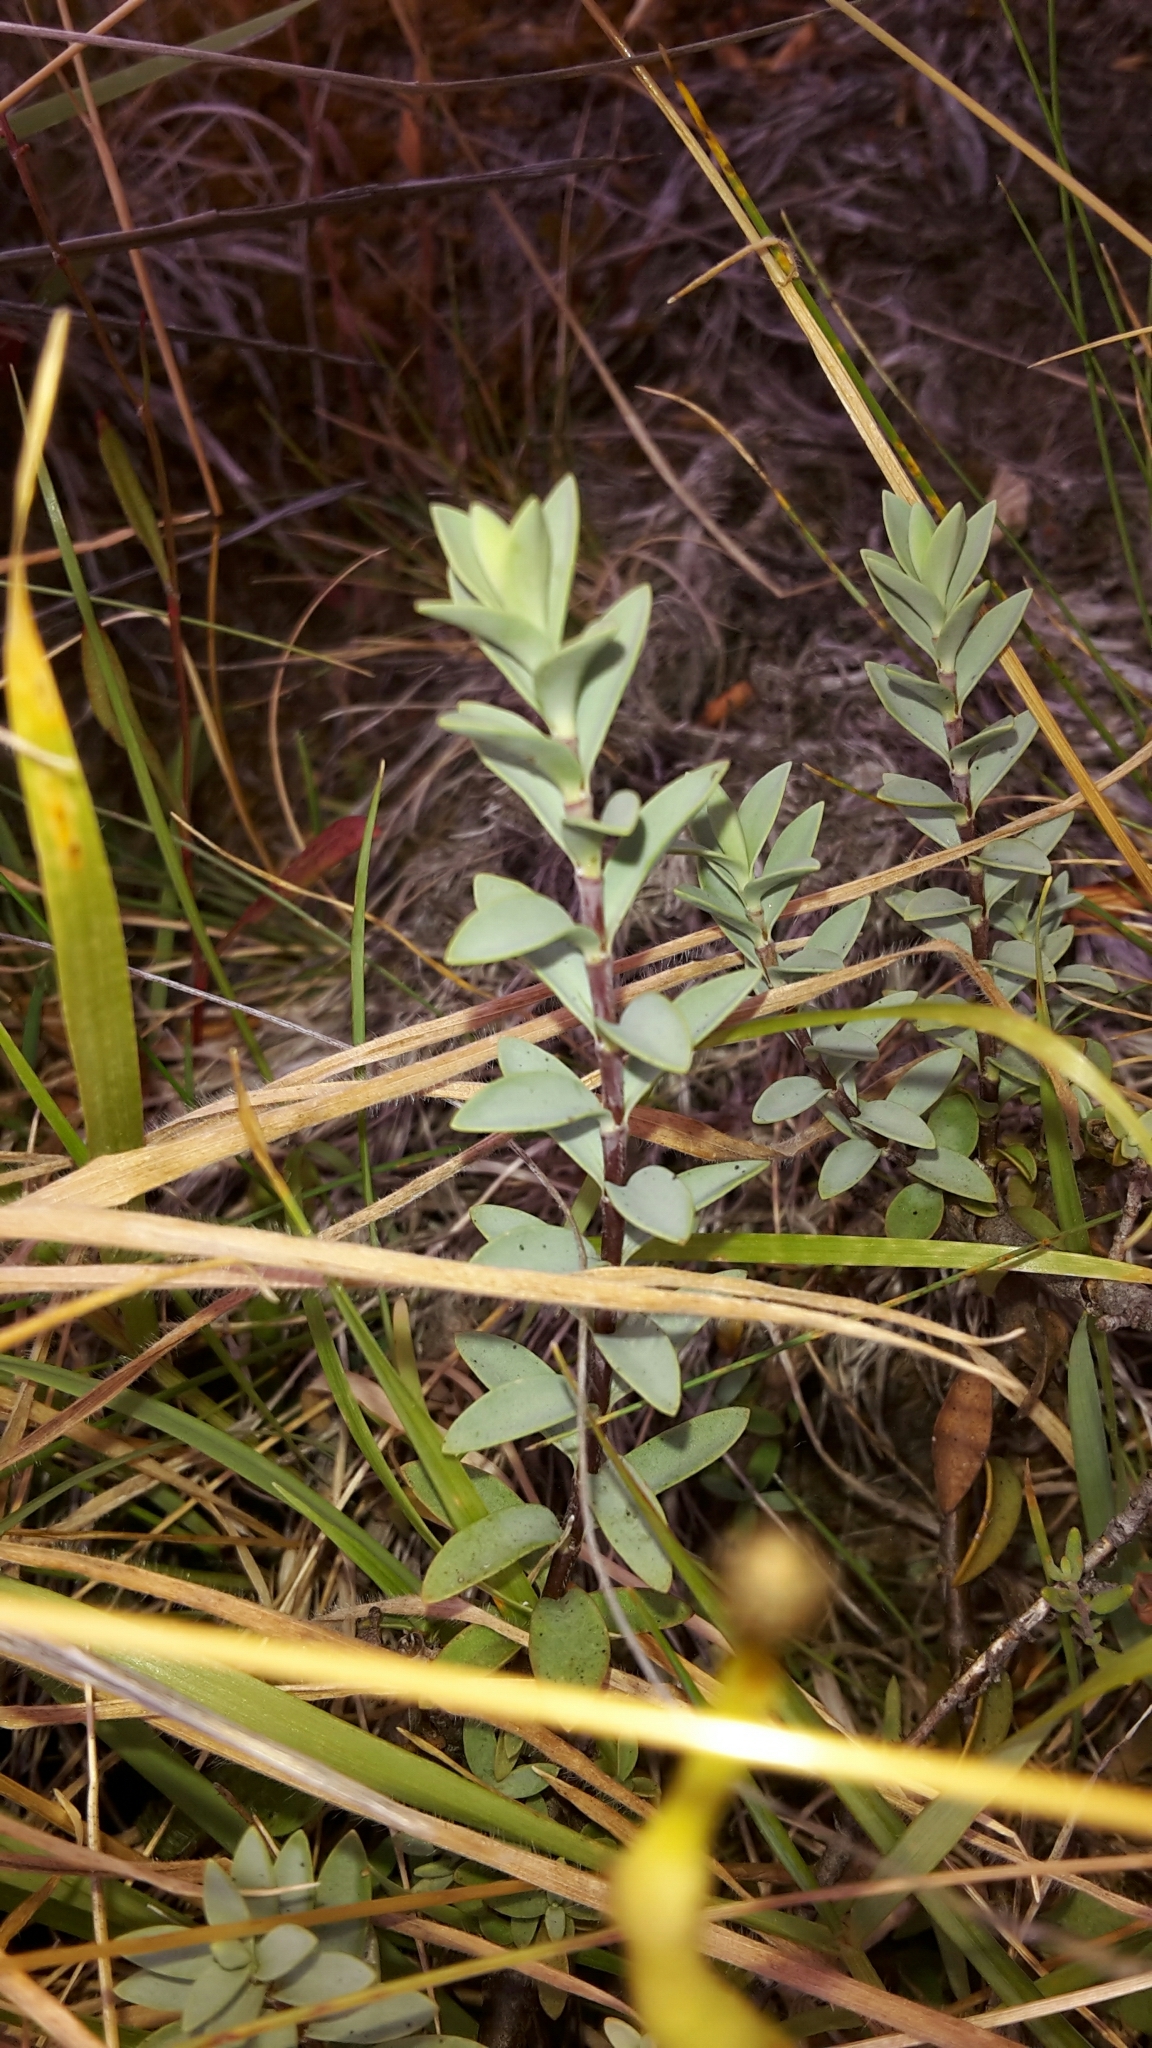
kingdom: Plantae
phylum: Tracheophyta
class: Magnoliopsida
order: Lamiales
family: Plantaginaceae
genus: Veronica
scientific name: Veronica pimeleoides
